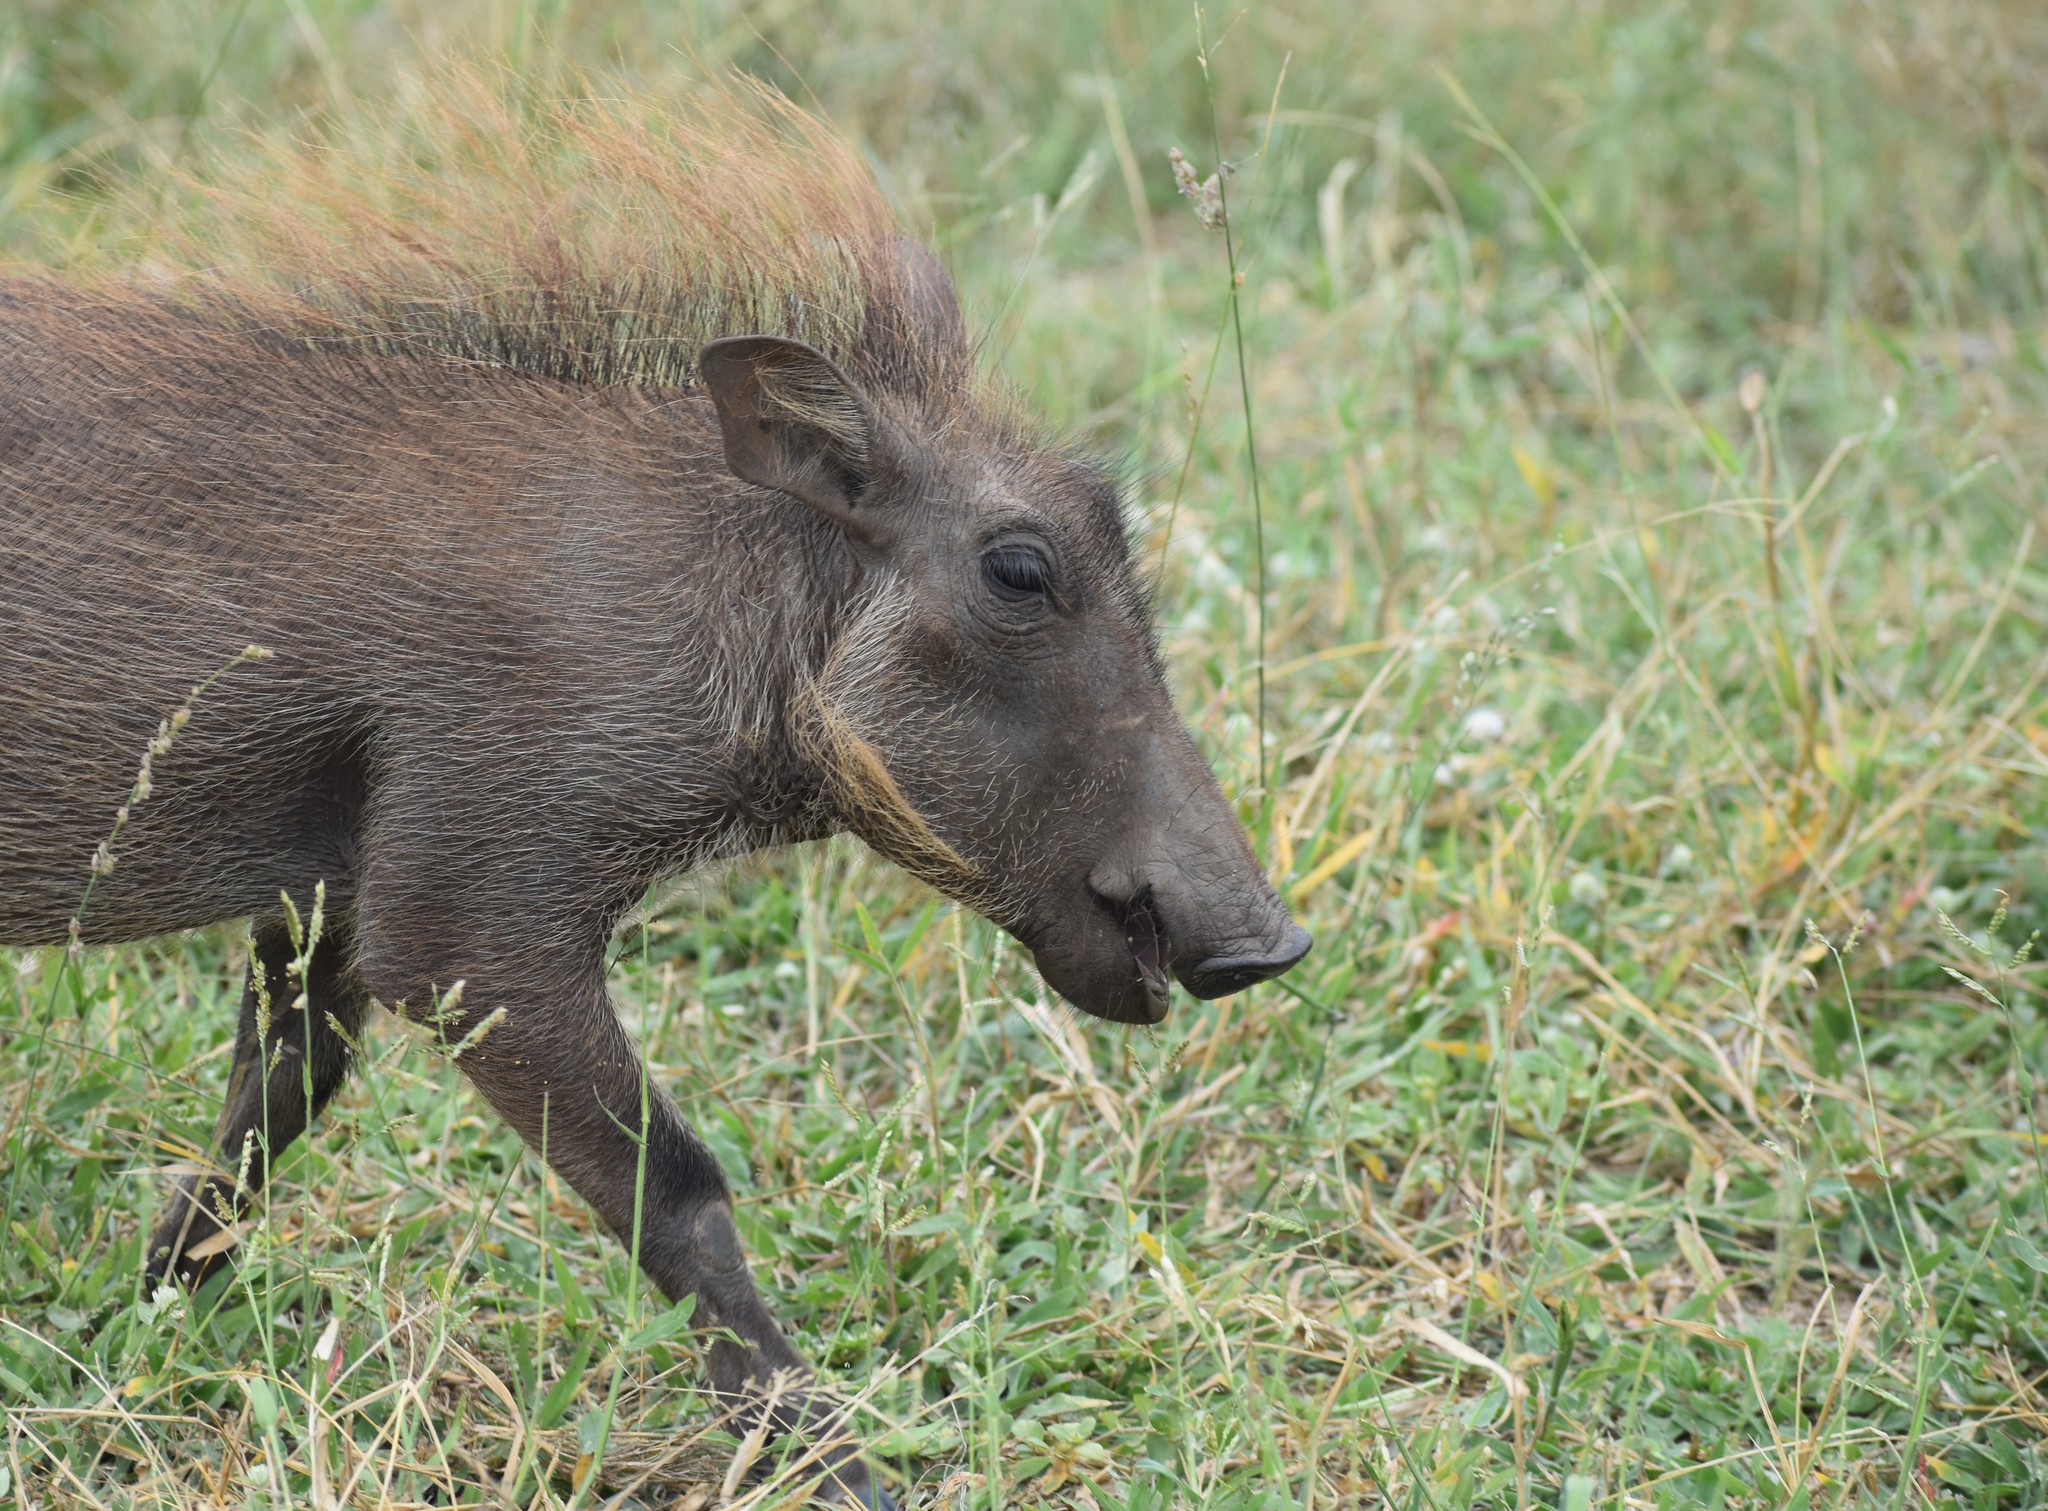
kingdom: Animalia
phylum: Chordata
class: Mammalia
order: Artiodactyla
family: Suidae
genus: Phacochoerus
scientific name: Phacochoerus africanus
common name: Common warthog
